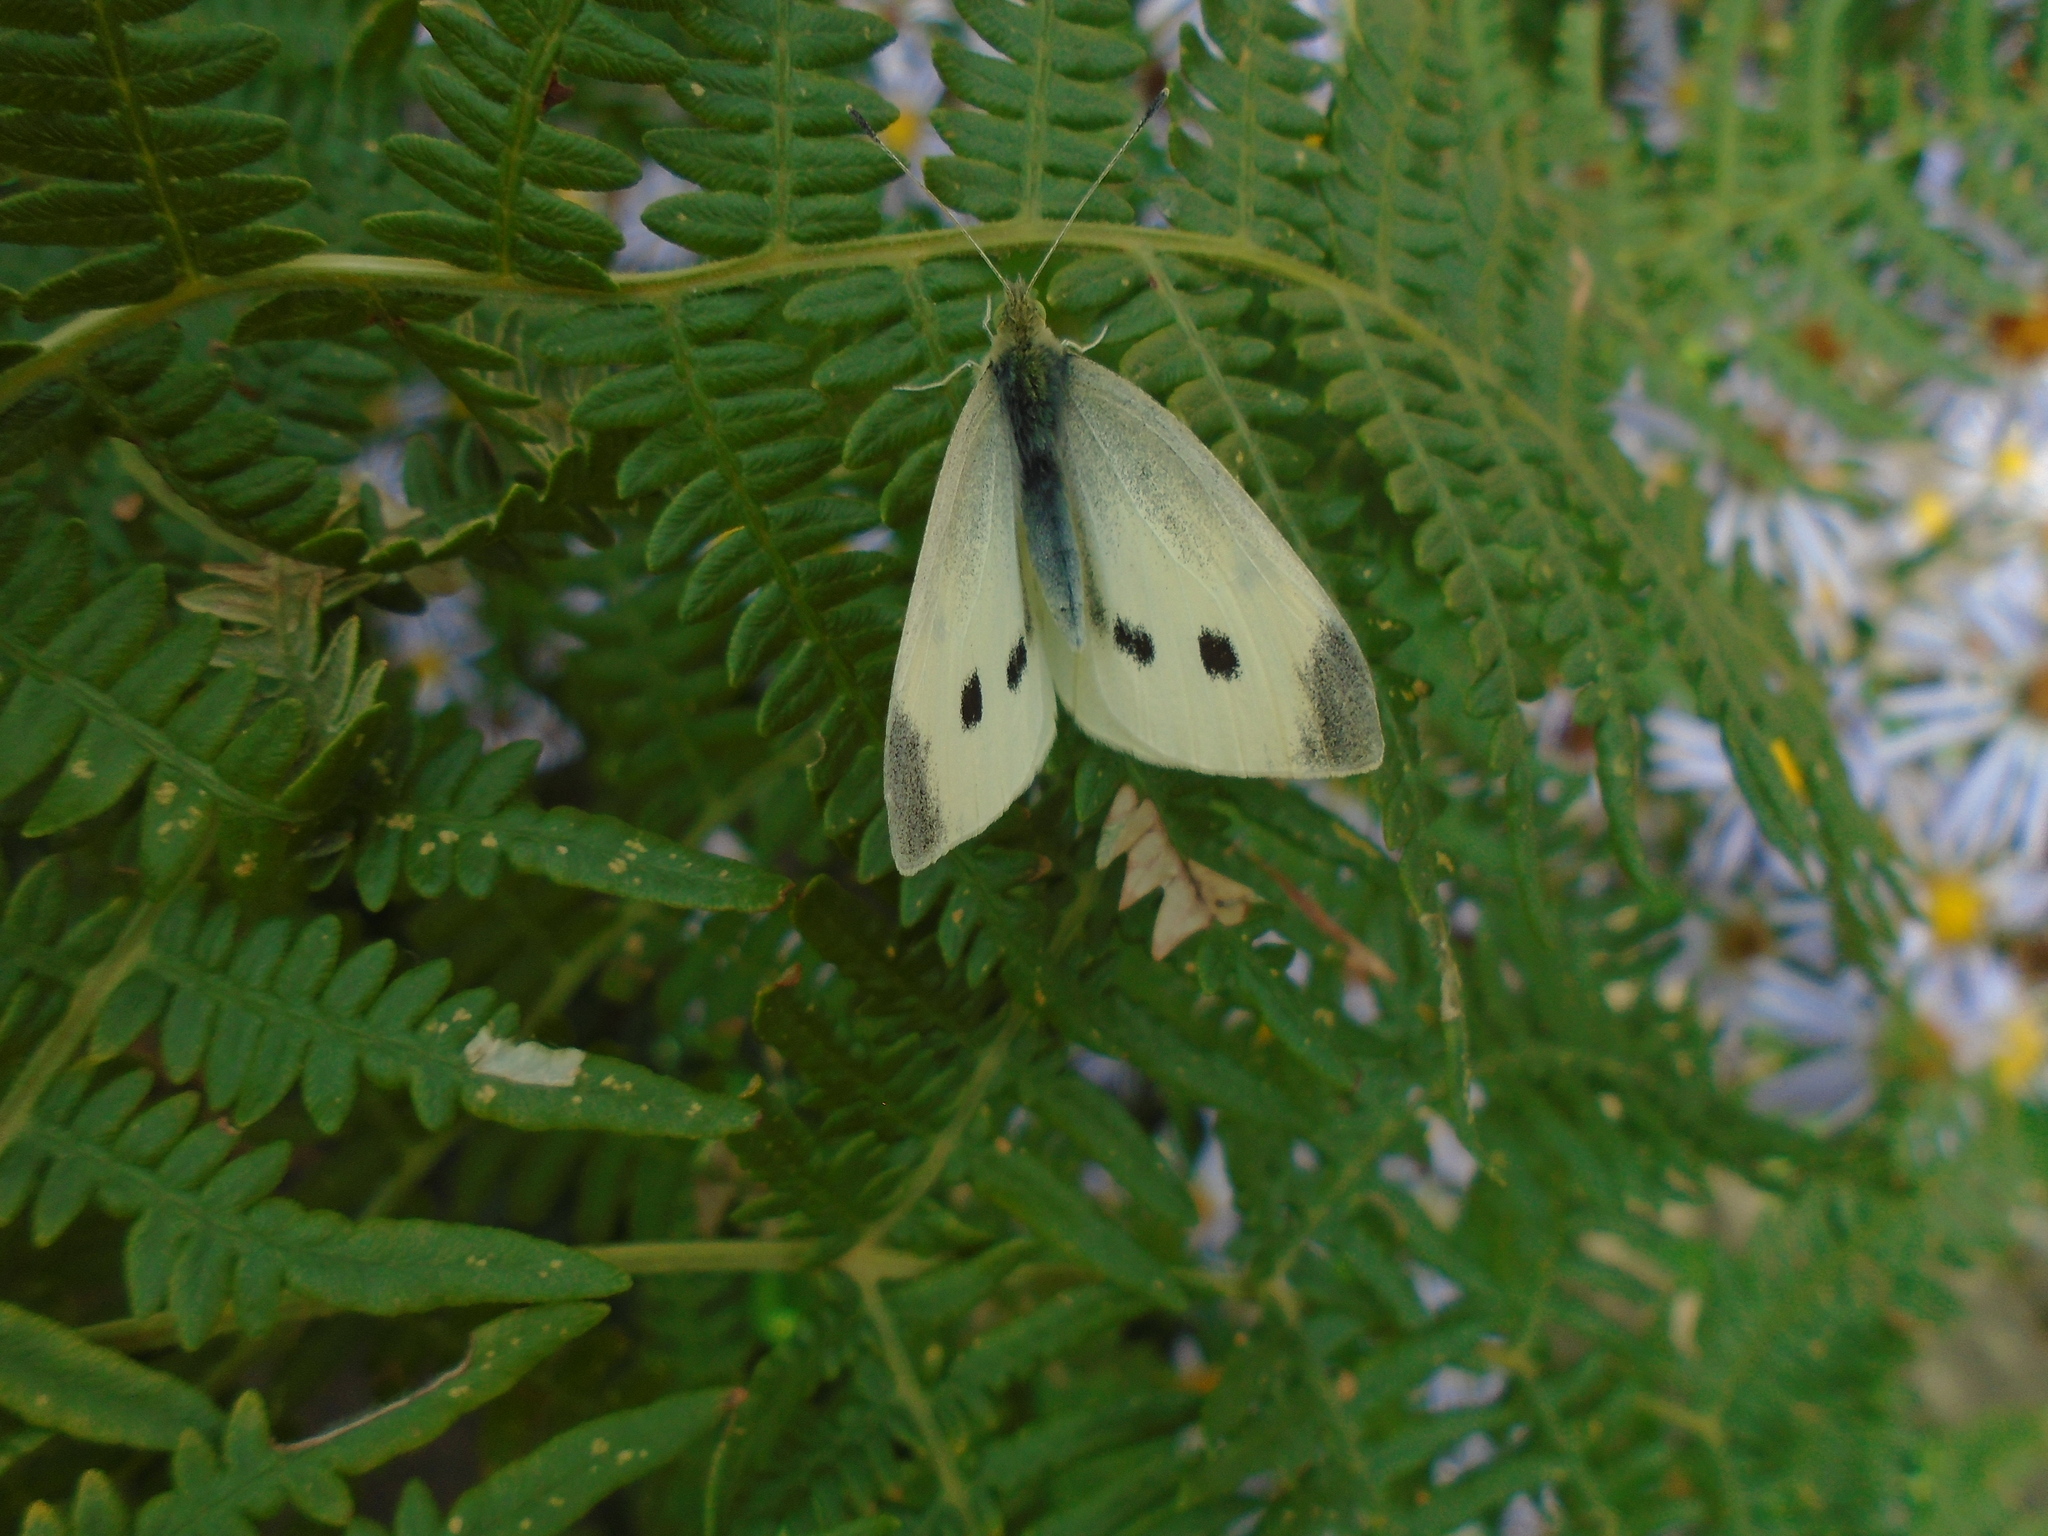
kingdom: Animalia
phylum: Arthropoda
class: Insecta
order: Lepidoptera
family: Pieridae
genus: Pieris
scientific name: Pieris rapae
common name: Small white
